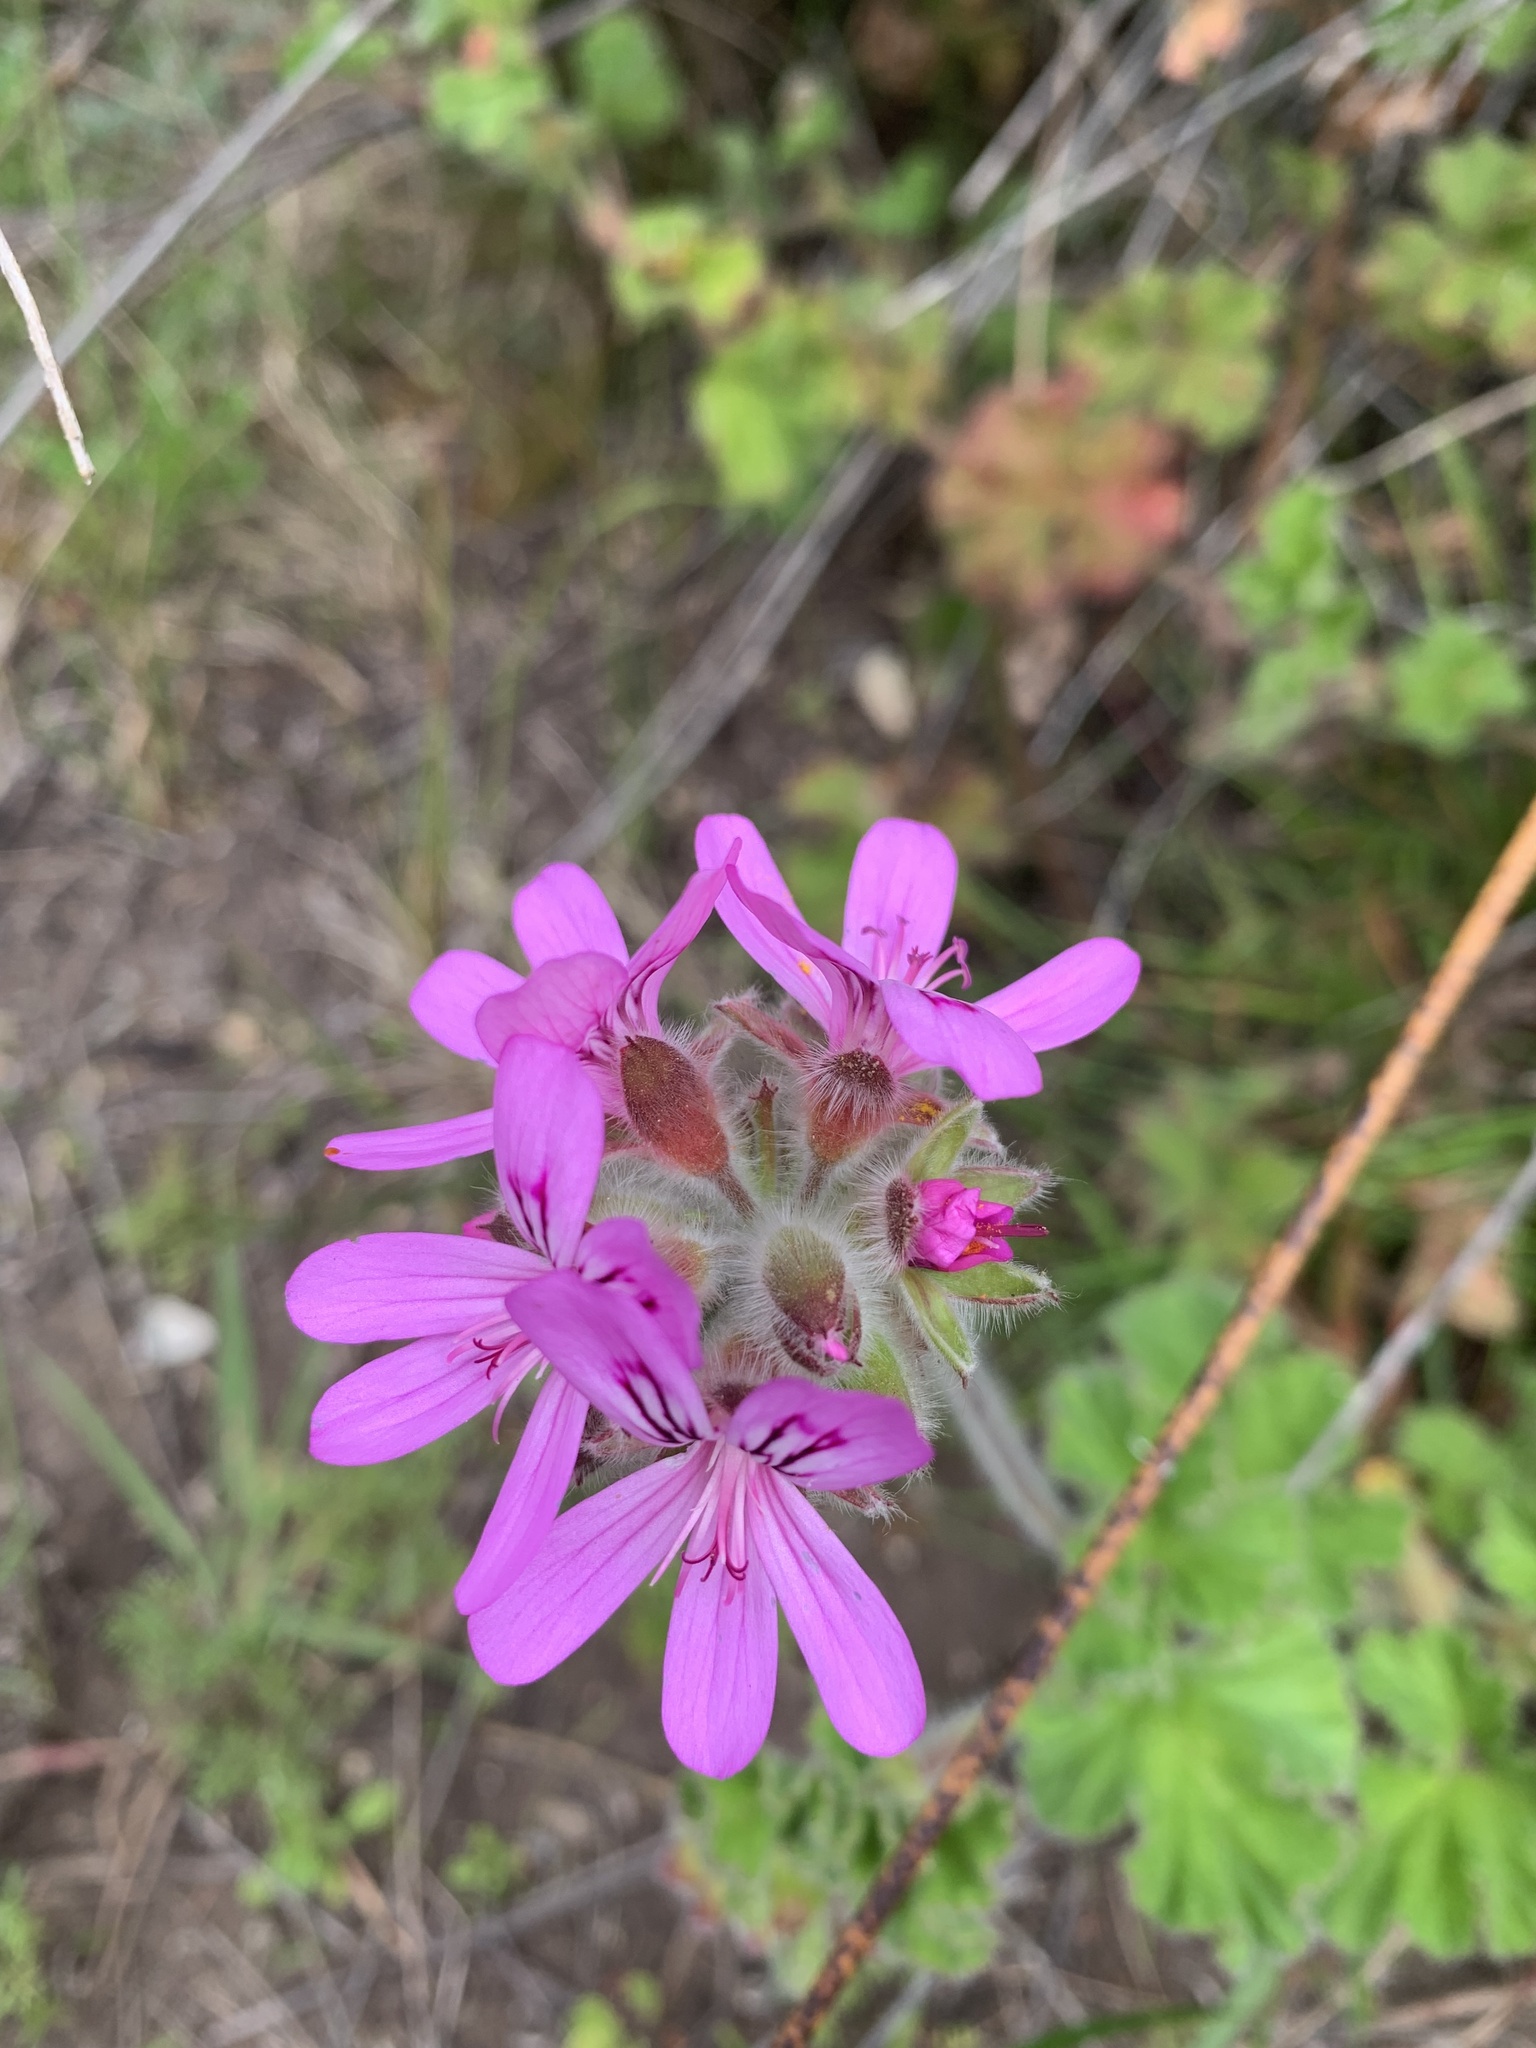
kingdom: Plantae
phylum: Tracheophyta
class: Magnoliopsida
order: Geraniales
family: Geraniaceae
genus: Pelargonium
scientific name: Pelargonium capitatum
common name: Rose scented geranium
